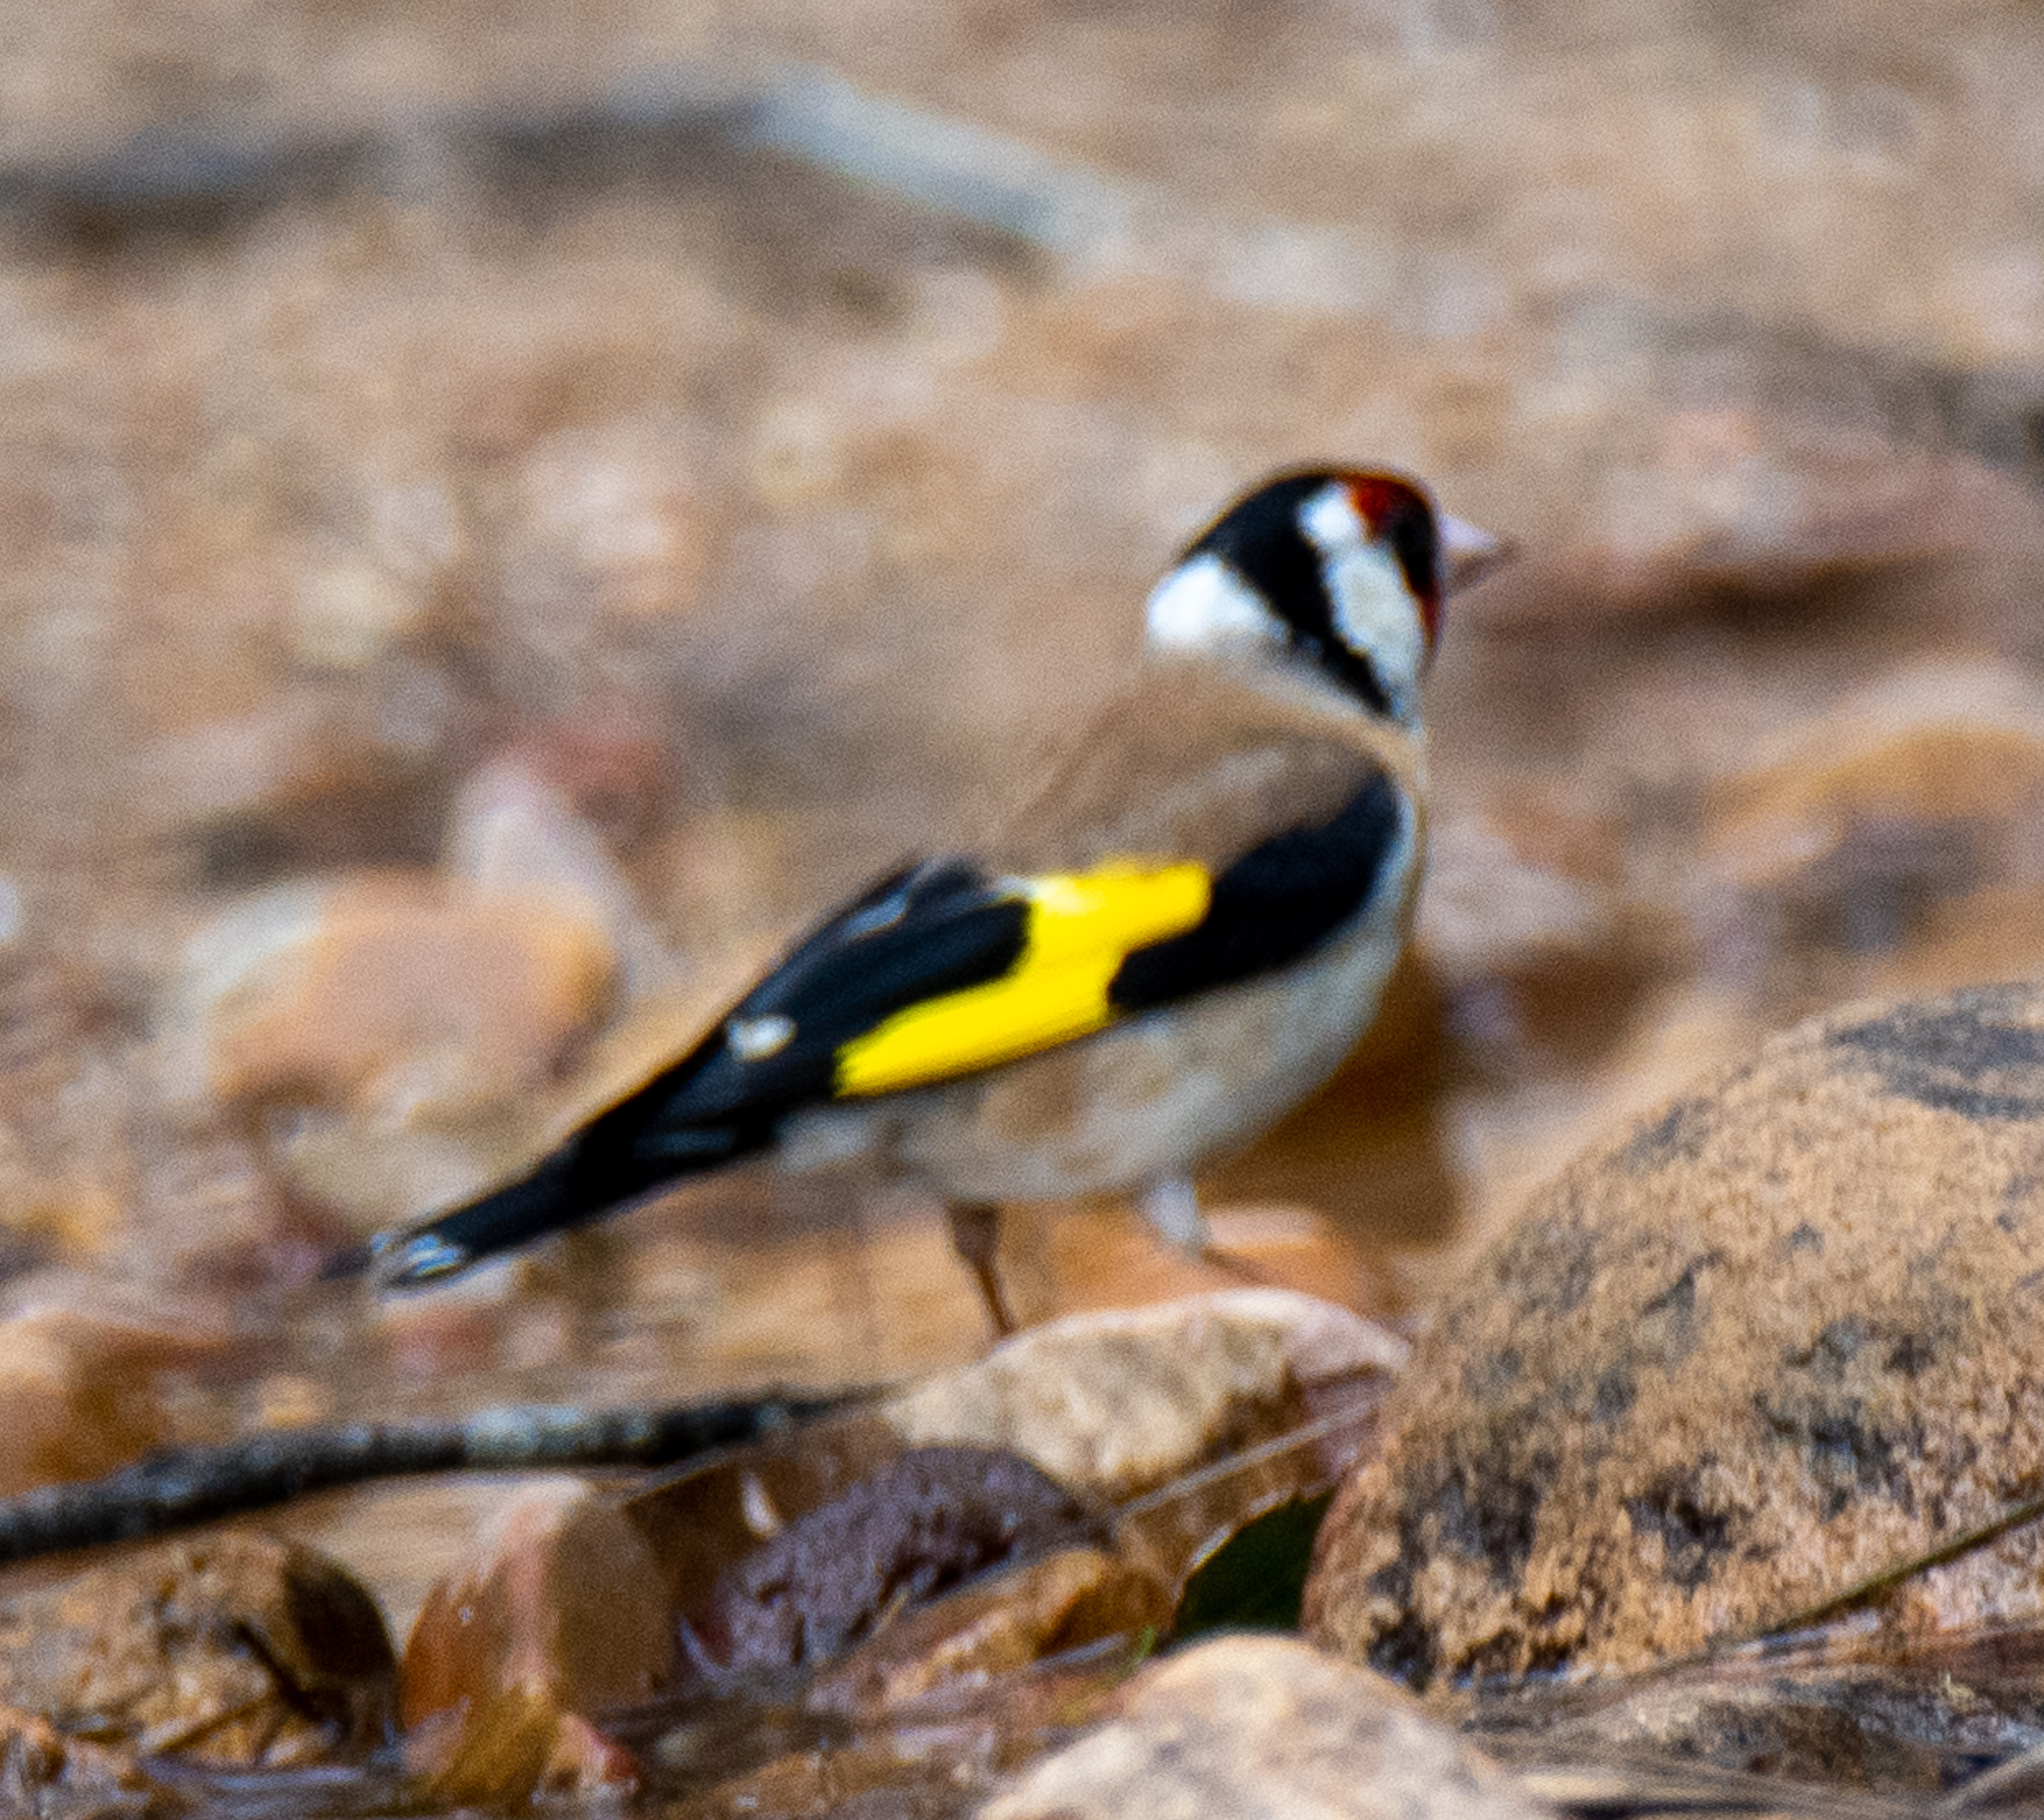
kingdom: Animalia
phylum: Chordata
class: Aves
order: Passeriformes
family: Fringillidae
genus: Carduelis
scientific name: Carduelis carduelis
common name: European goldfinch
